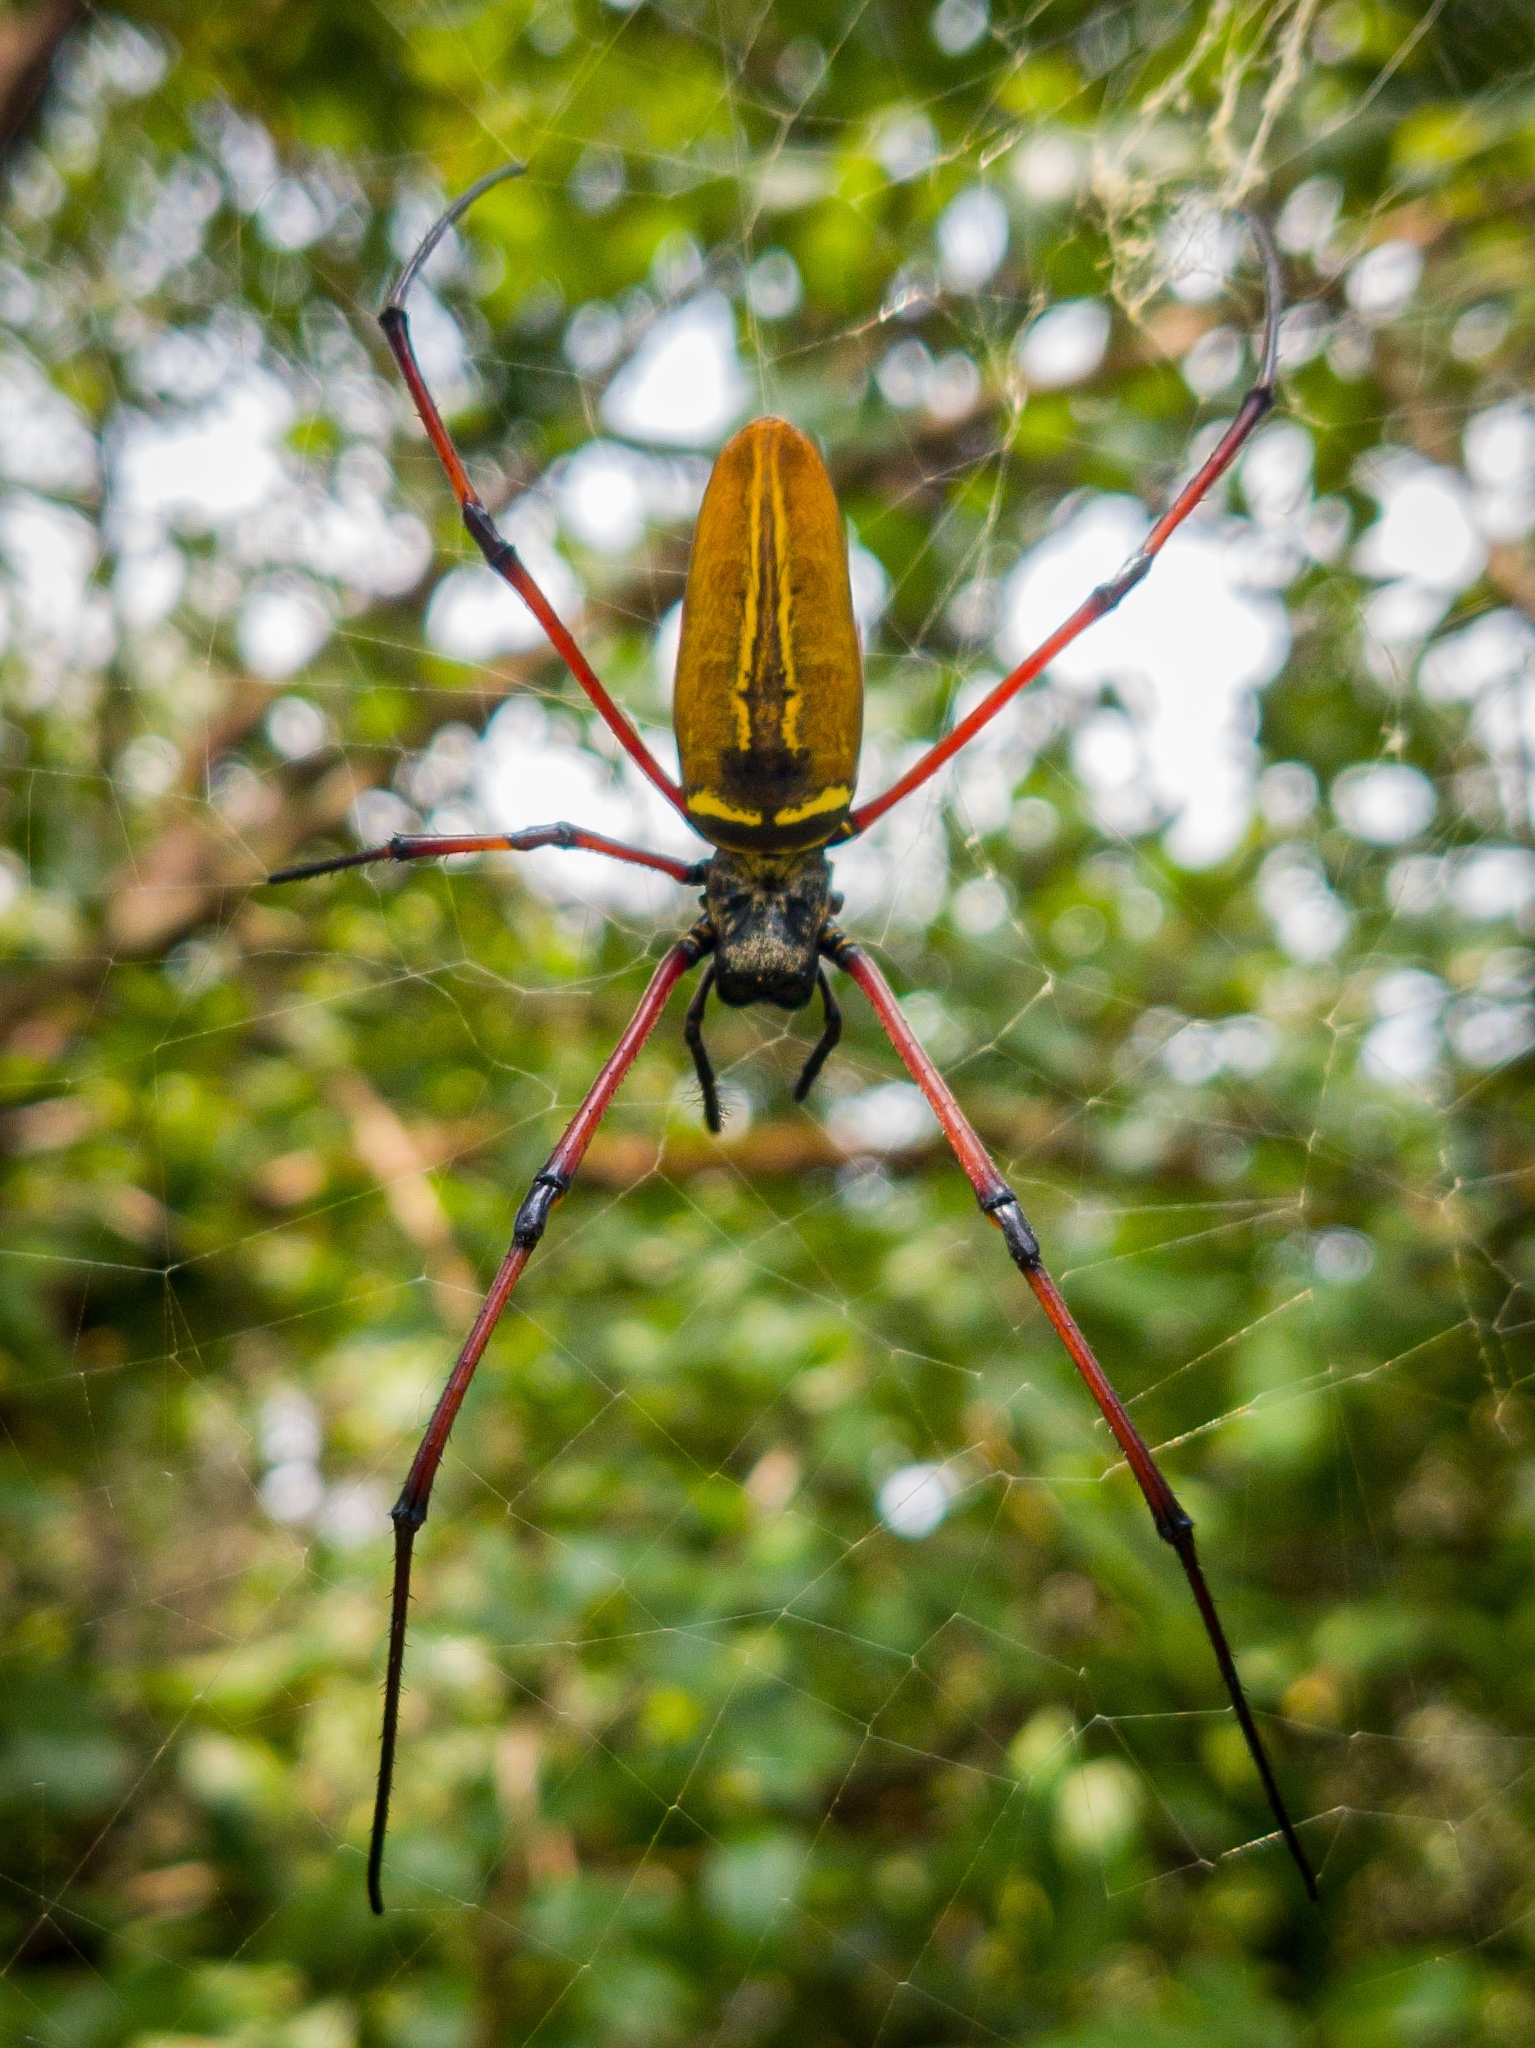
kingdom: Animalia
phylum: Arthropoda
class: Arachnida
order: Araneae
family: Araneidae
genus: Nephila
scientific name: Nephila kuhli
